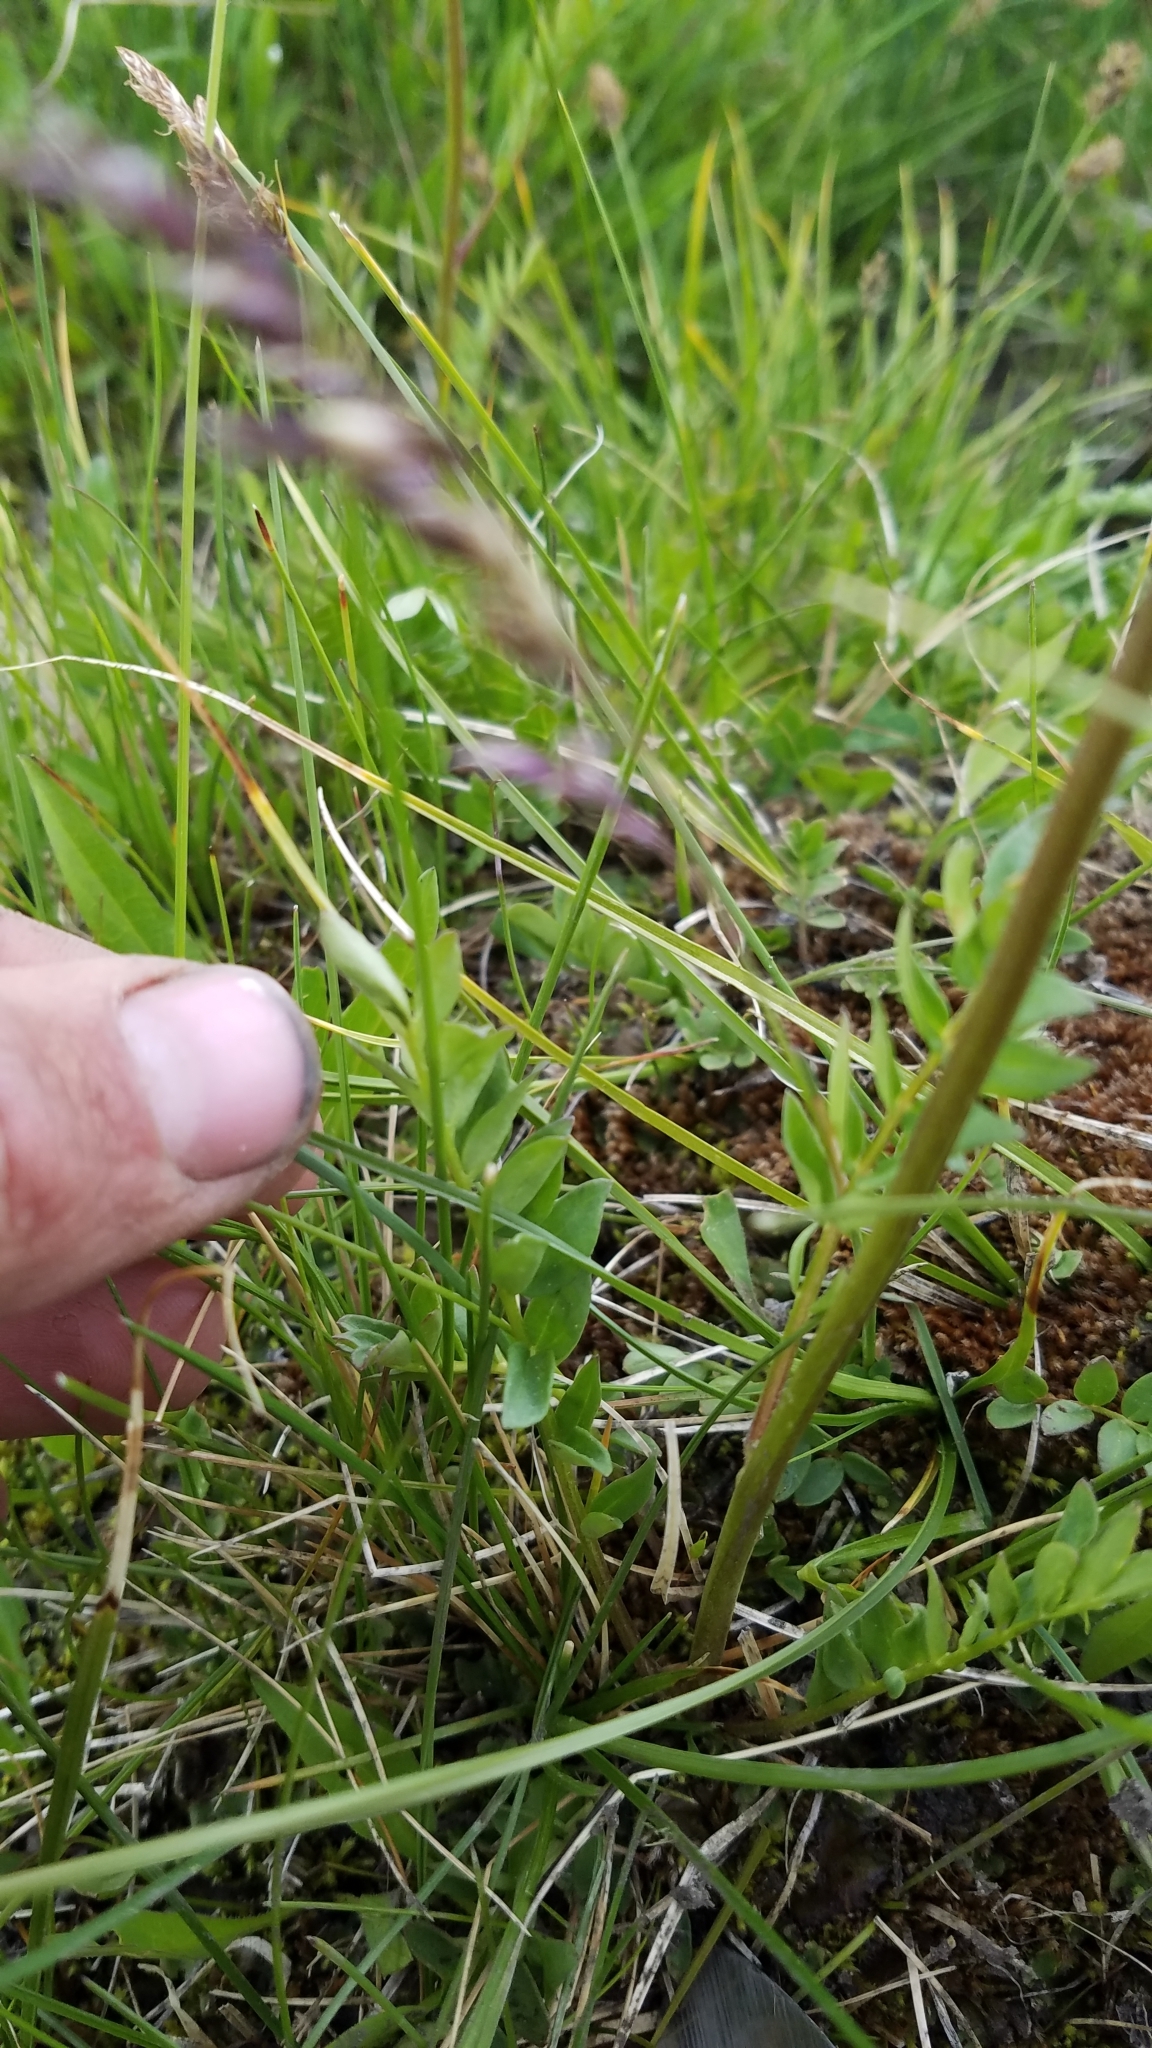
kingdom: Plantae
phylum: Tracheophyta
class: Magnoliopsida
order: Ericales
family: Polemoniaceae
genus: Polemonium
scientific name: Polemonium occidentale
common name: Western jacob's-ladder
